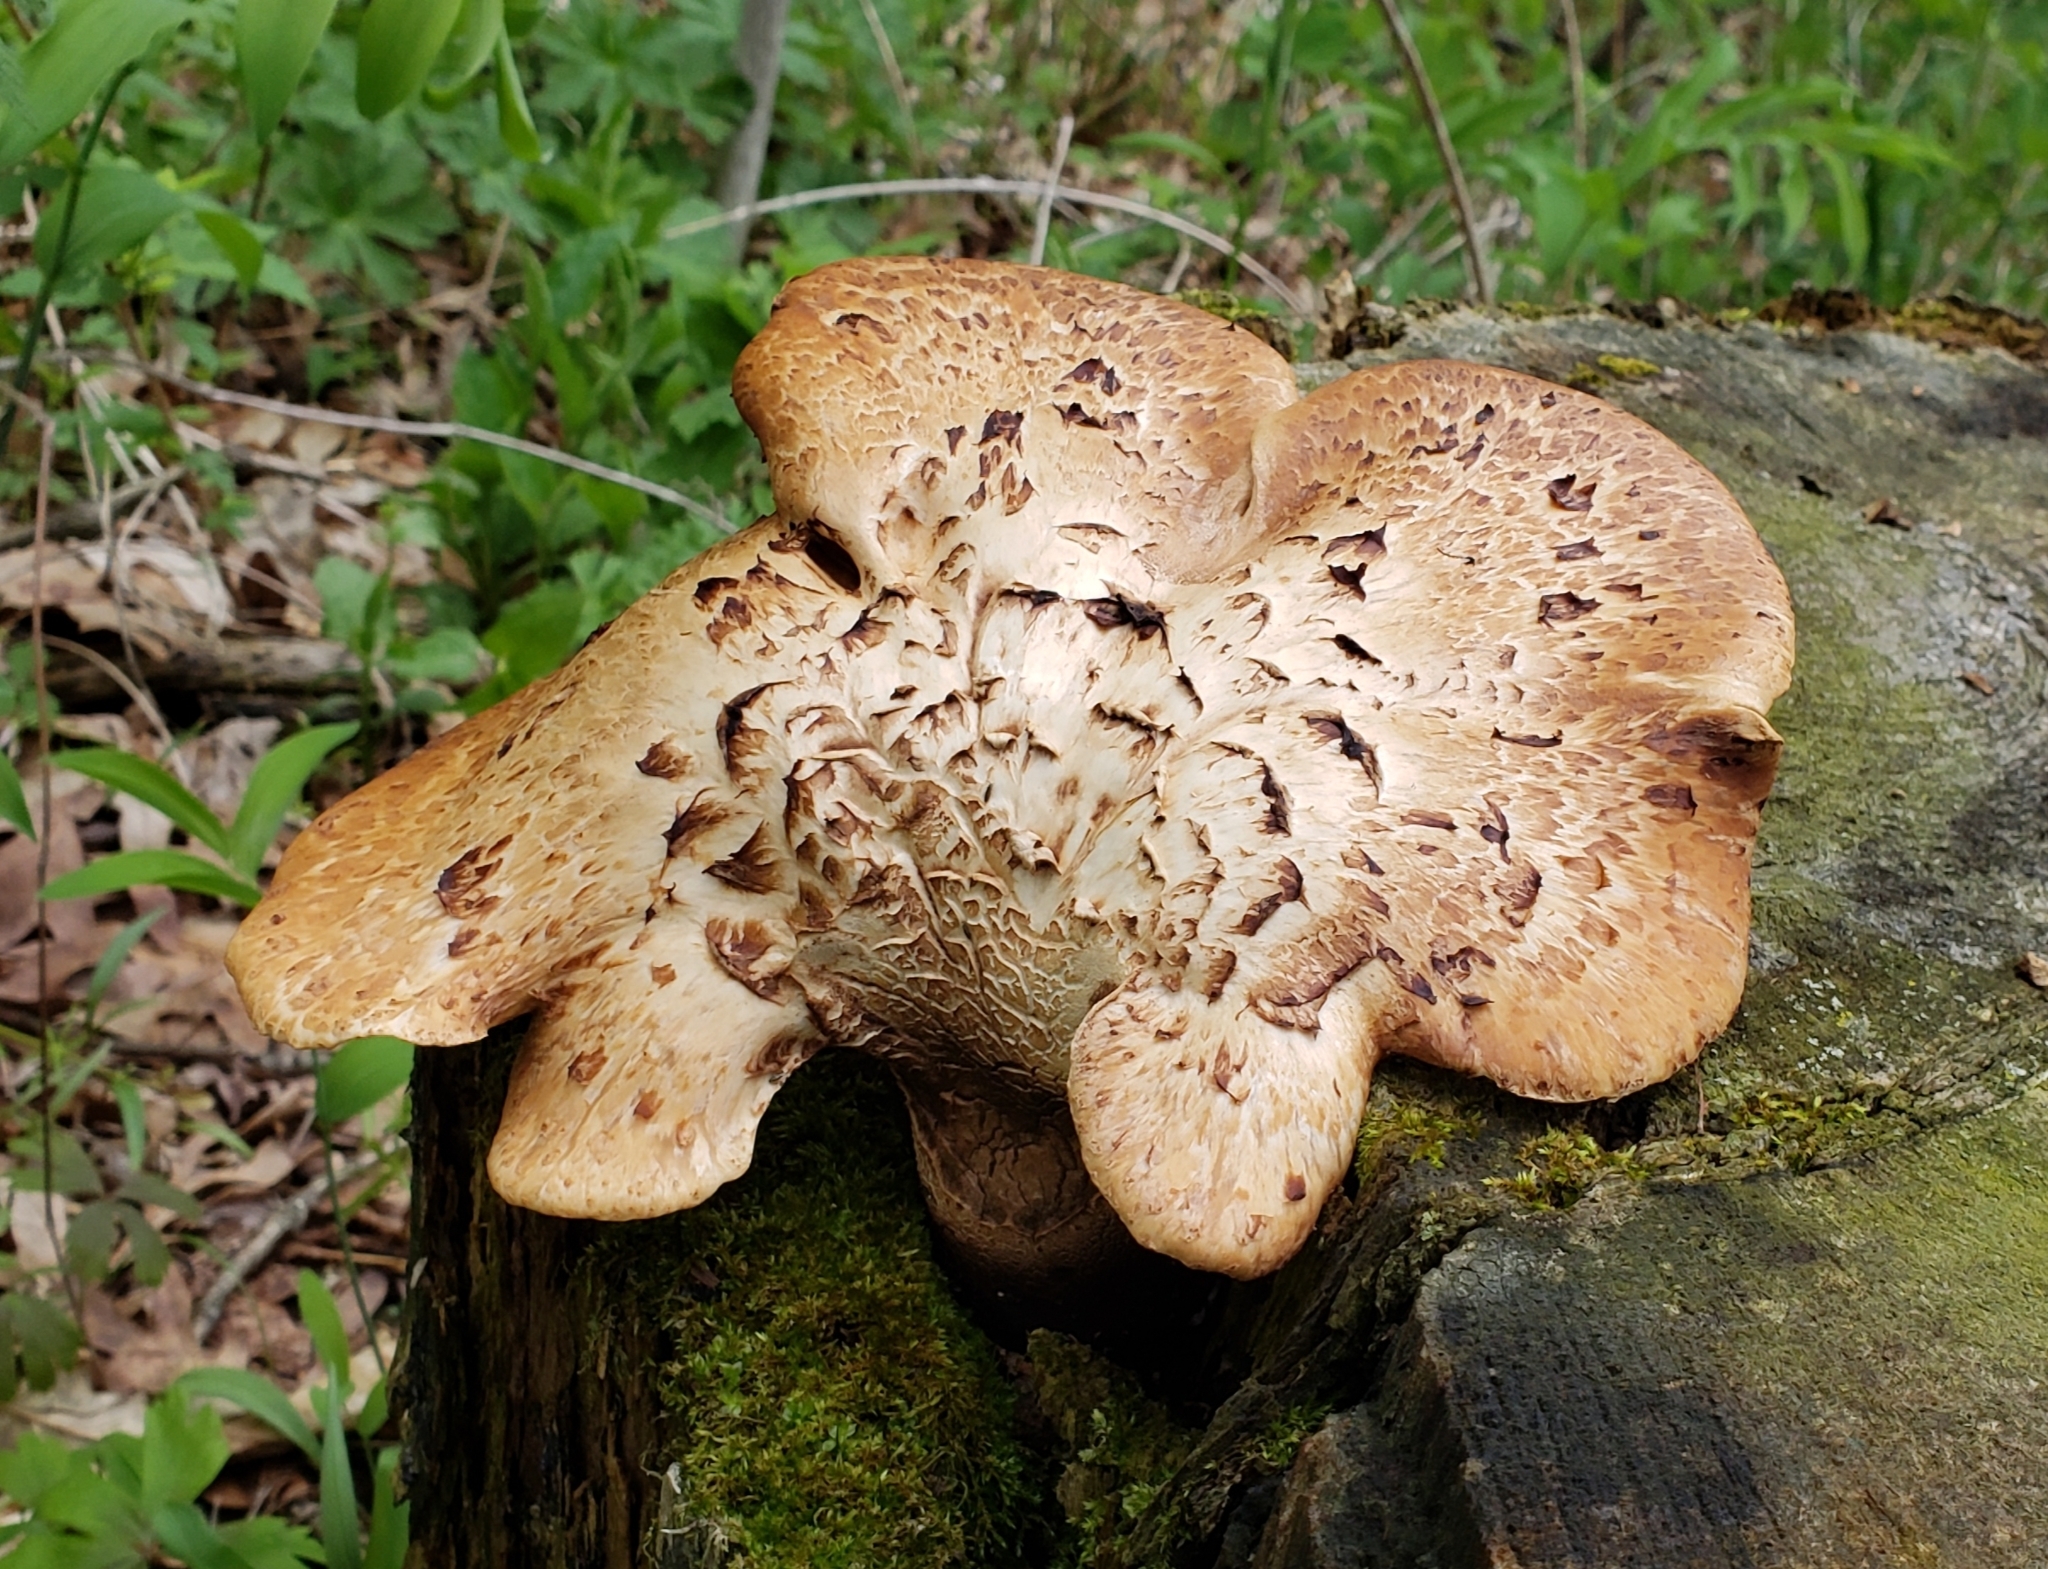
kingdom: Fungi
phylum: Basidiomycota
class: Agaricomycetes
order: Polyporales
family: Polyporaceae
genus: Cerioporus
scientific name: Cerioporus squamosus
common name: Dryad's saddle
